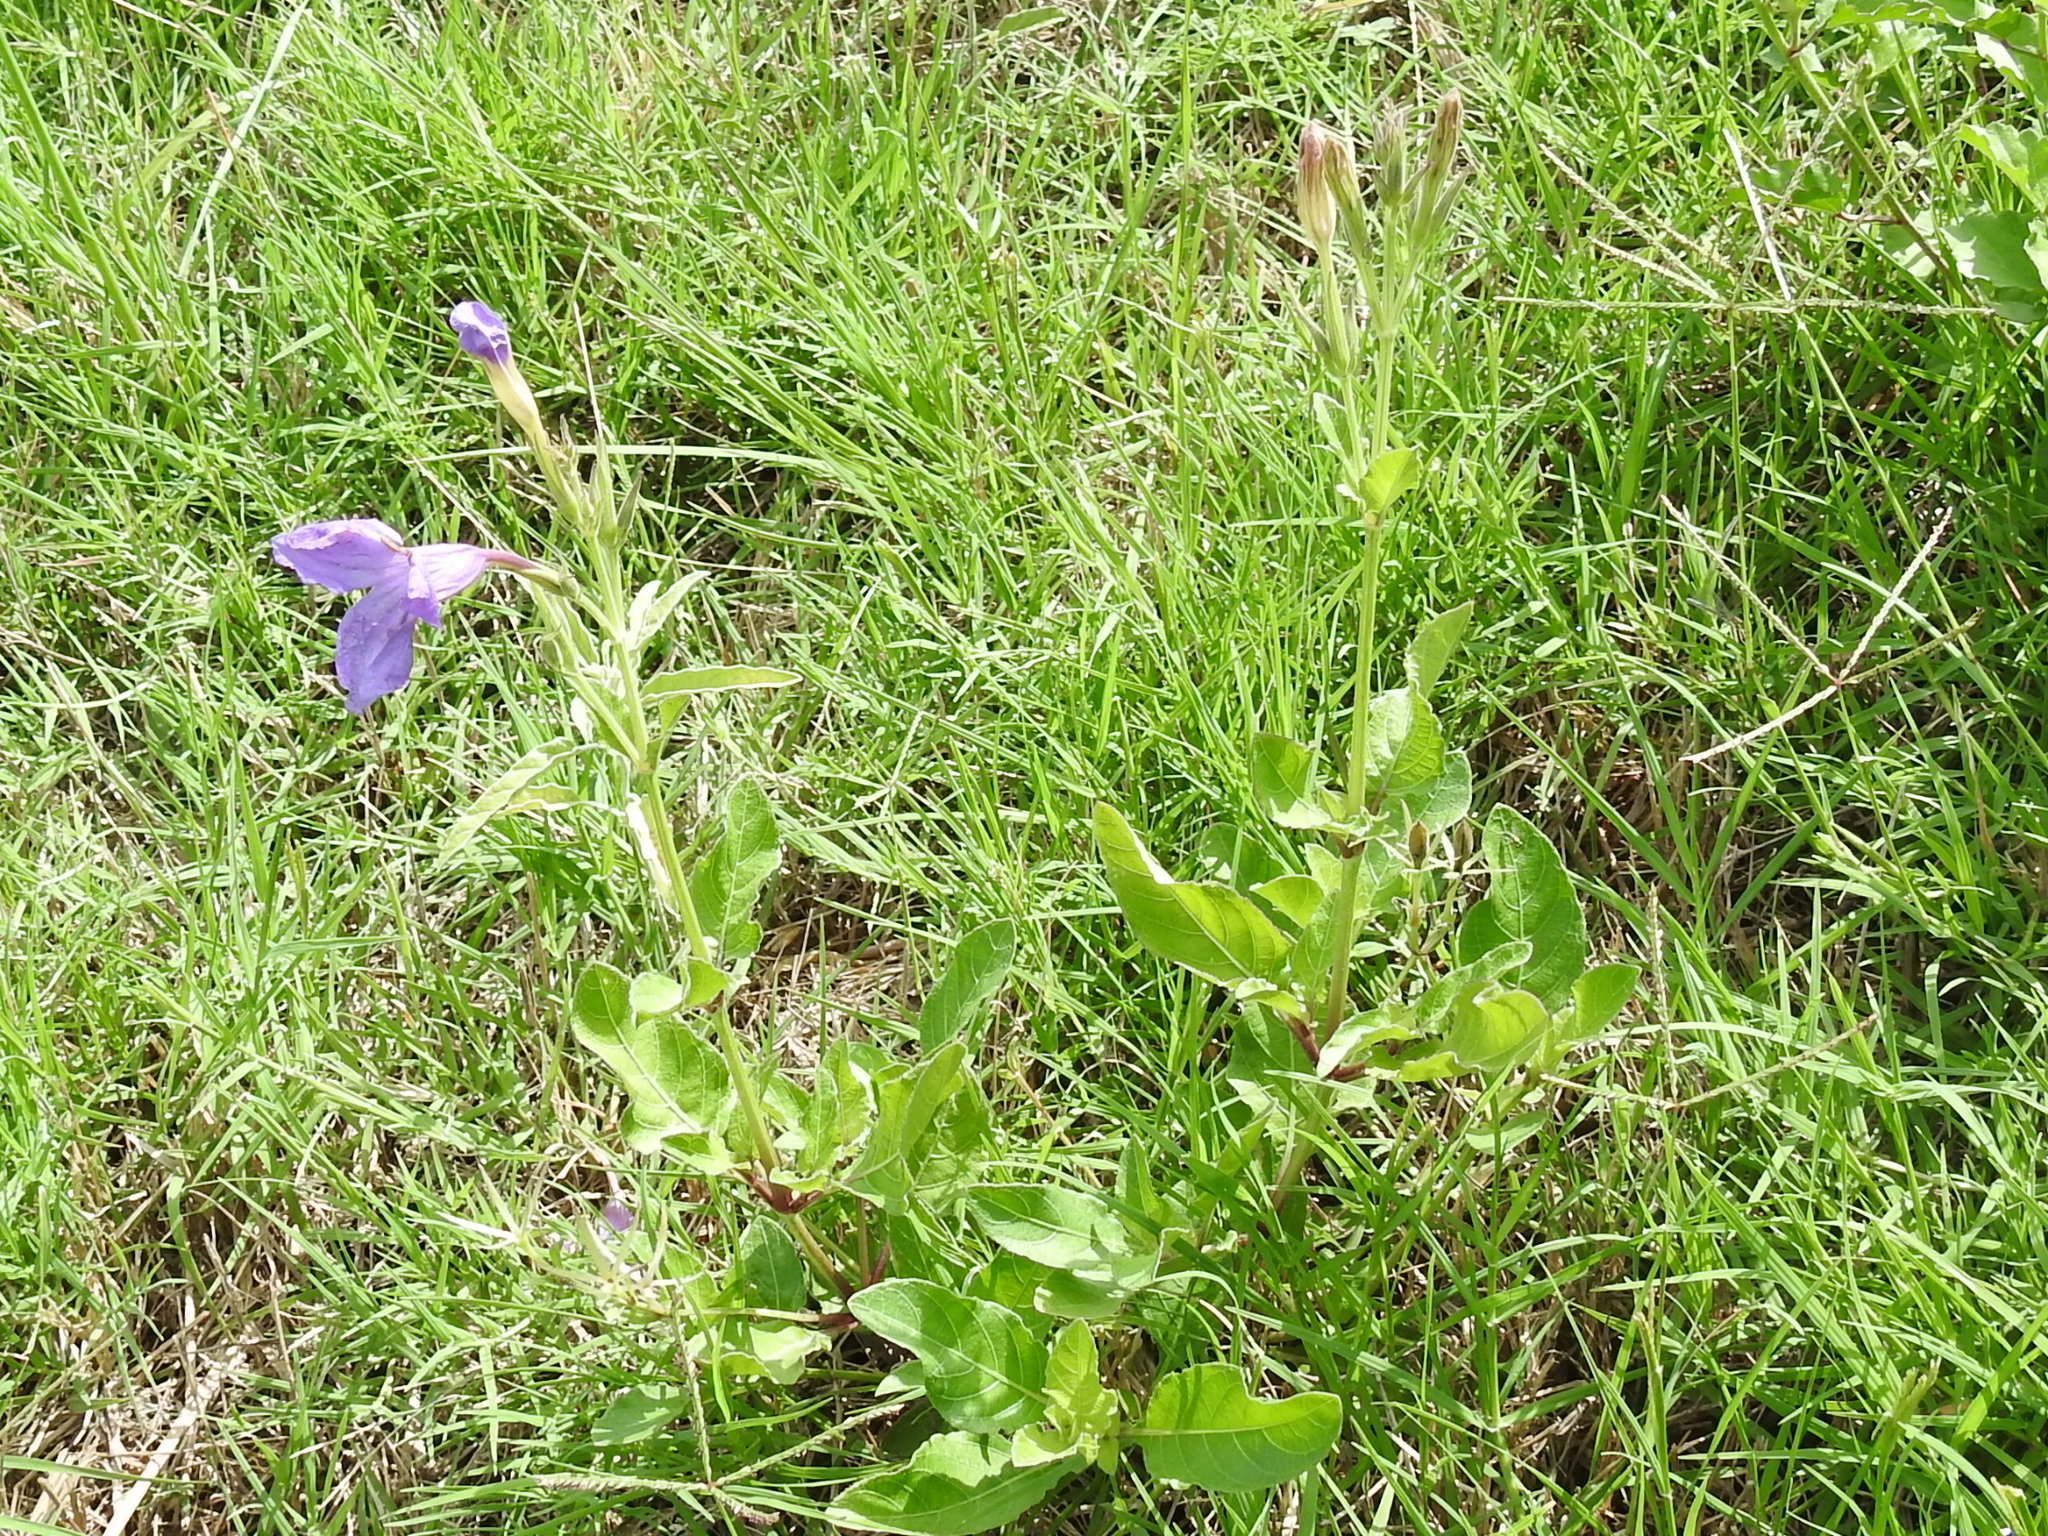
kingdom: Plantae
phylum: Tracheophyta
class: Magnoliopsida
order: Lamiales
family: Acanthaceae
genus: Ruellia
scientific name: Ruellia ciliatiflora
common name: Hairyflower wild petunia
